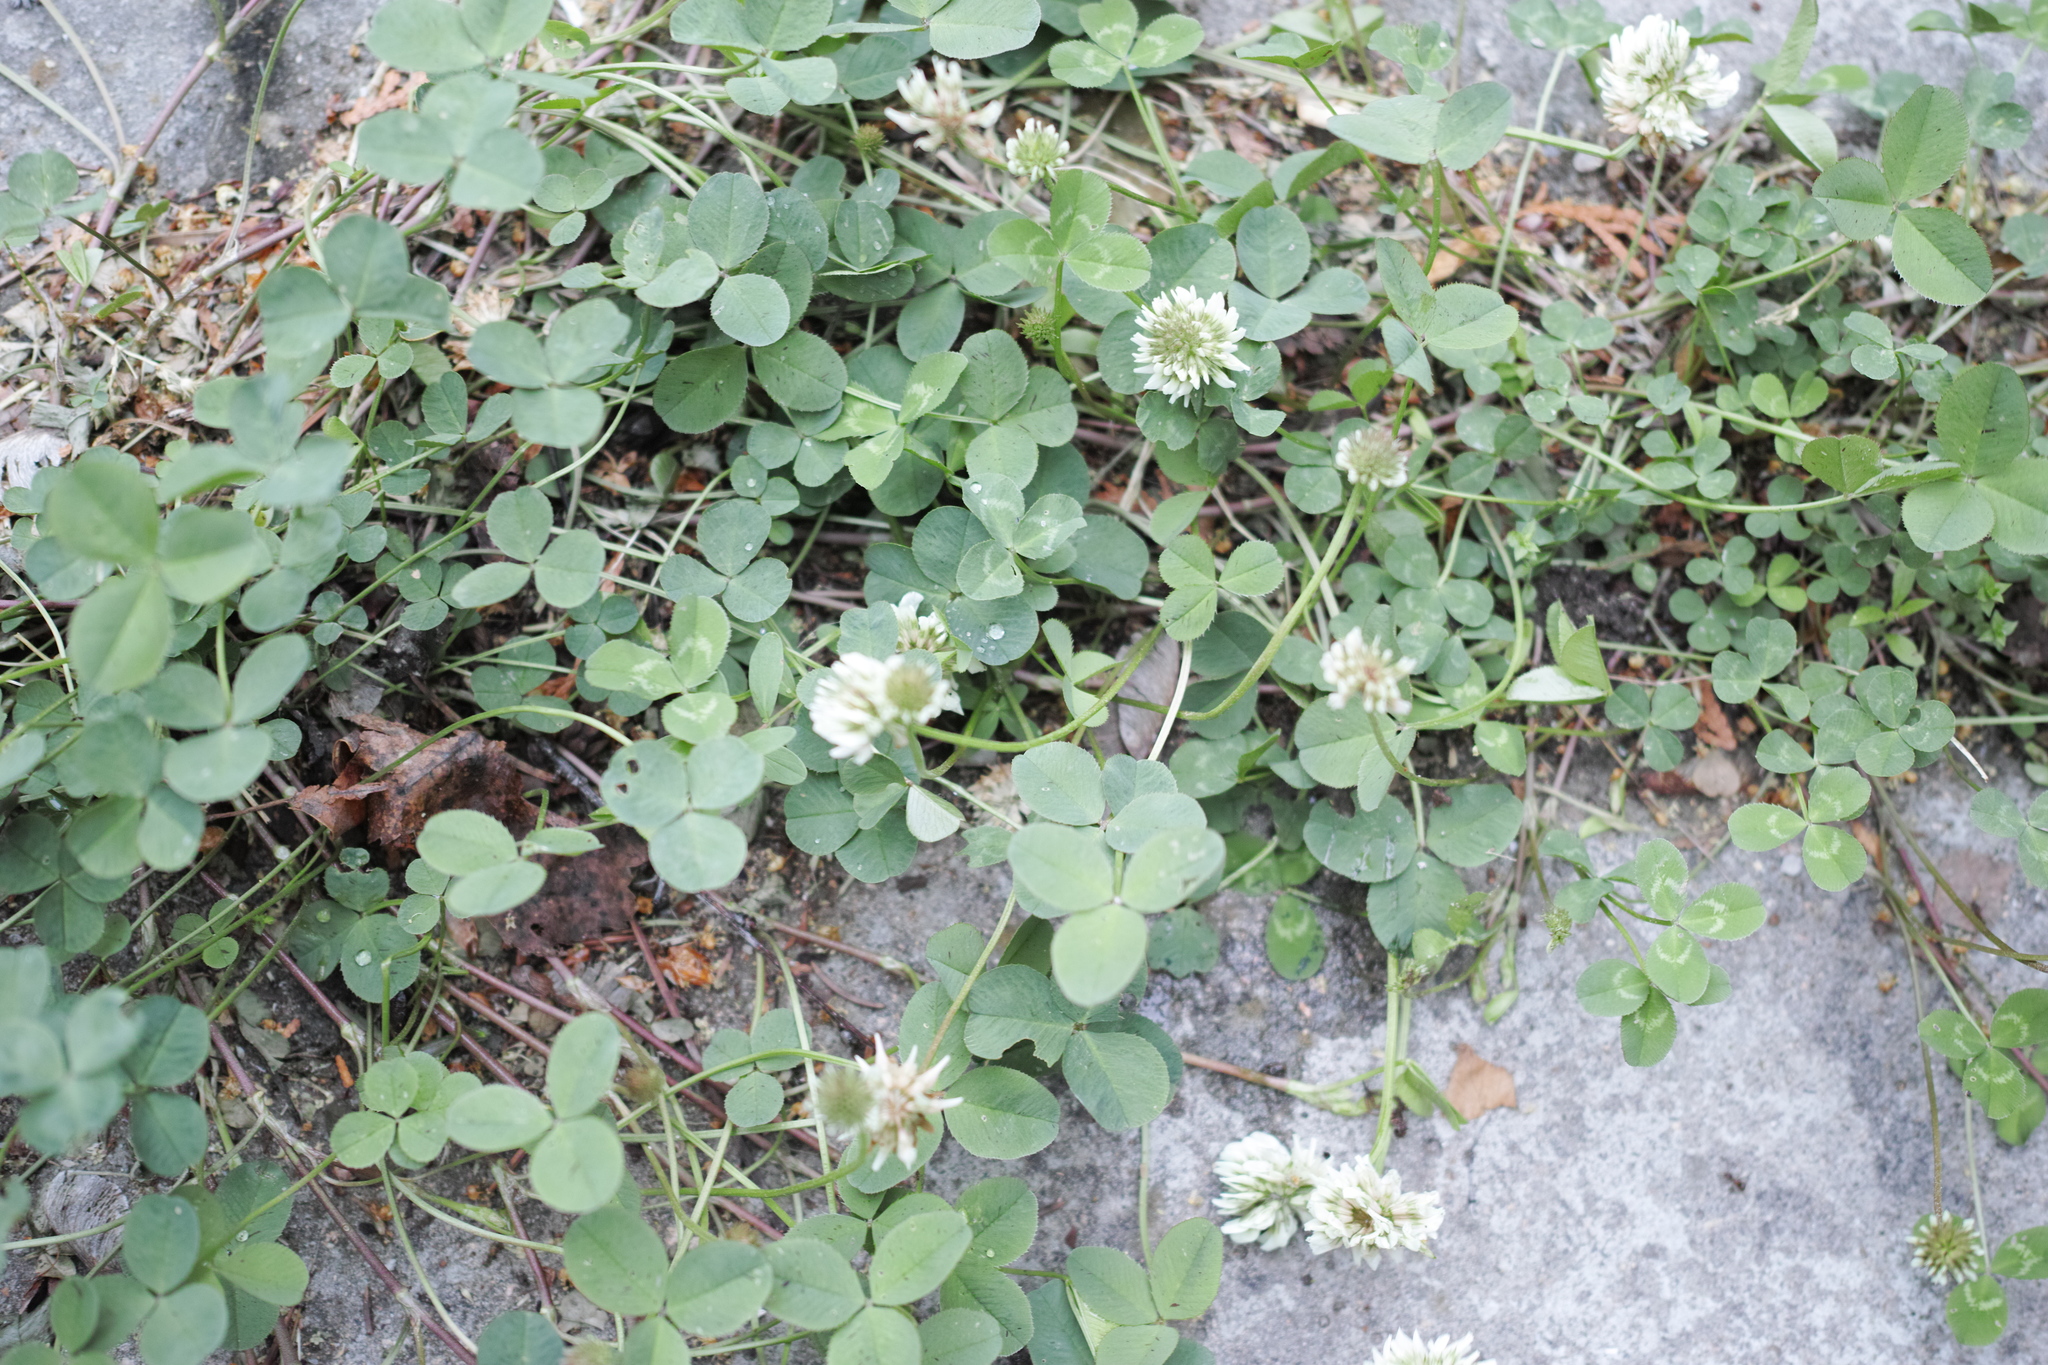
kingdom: Plantae
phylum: Tracheophyta
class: Magnoliopsida
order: Fabales
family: Fabaceae
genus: Trifolium
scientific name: Trifolium repens
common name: White clover
